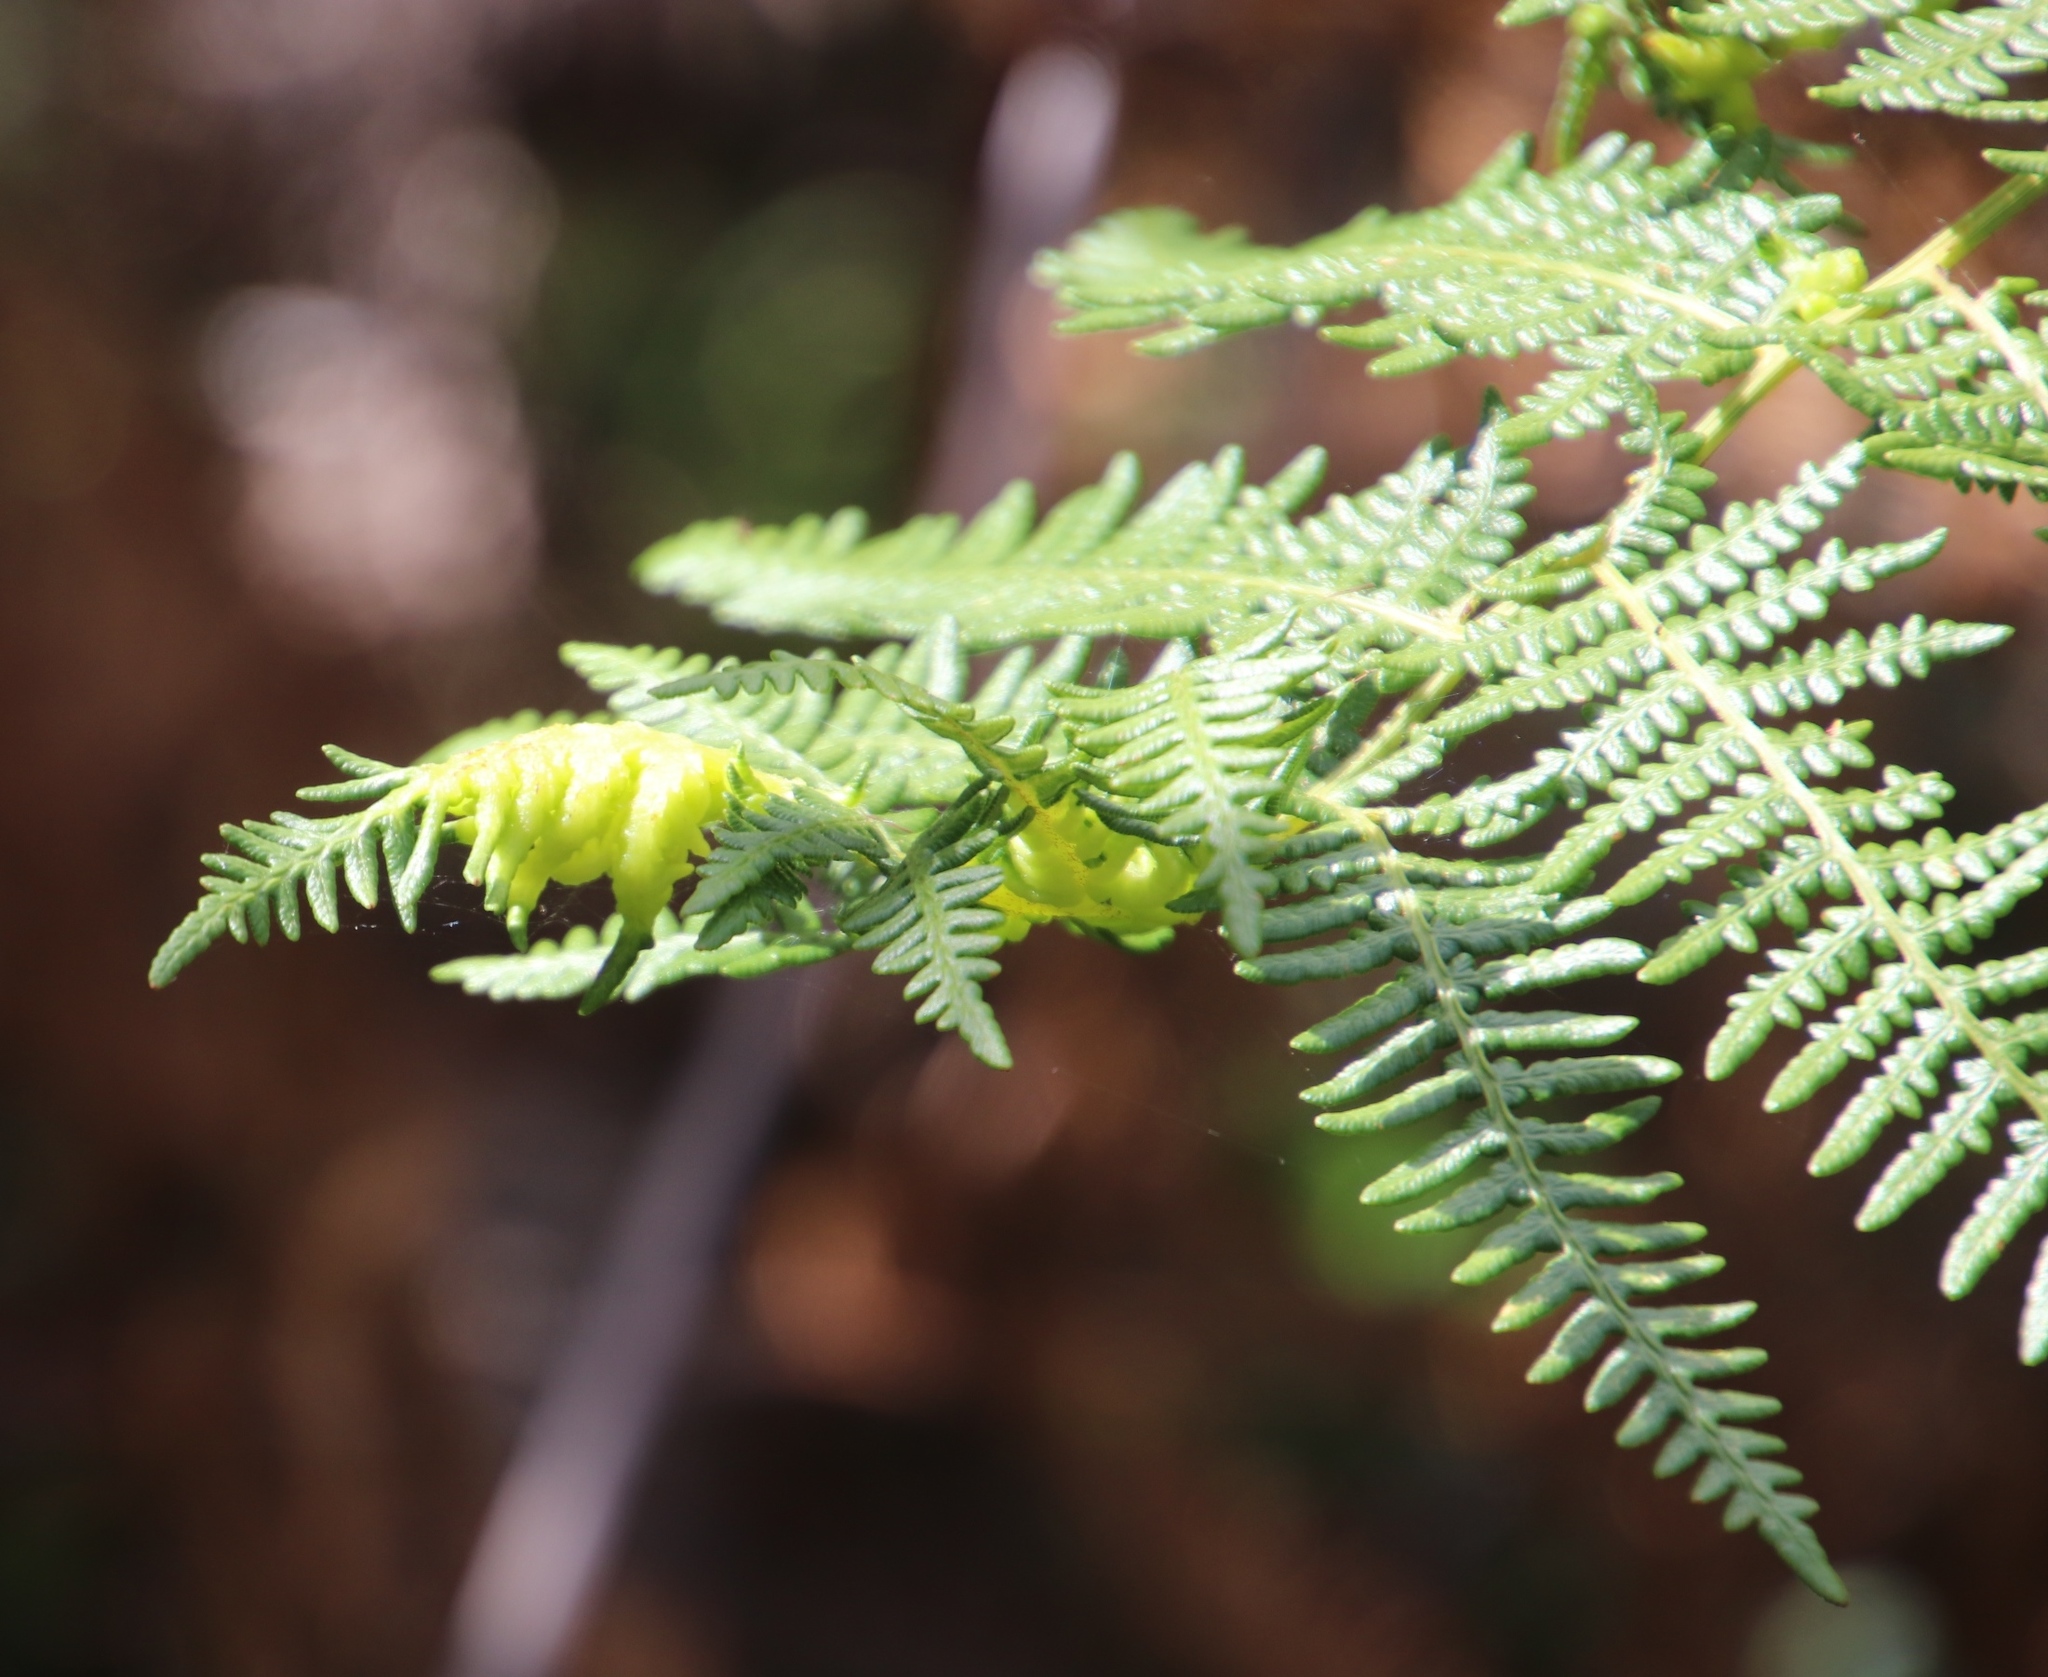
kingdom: Animalia
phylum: Arthropoda
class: Arachnida
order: Trombidiformes
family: Eriophyidae
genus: Eriophyes
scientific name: Eriophyes
